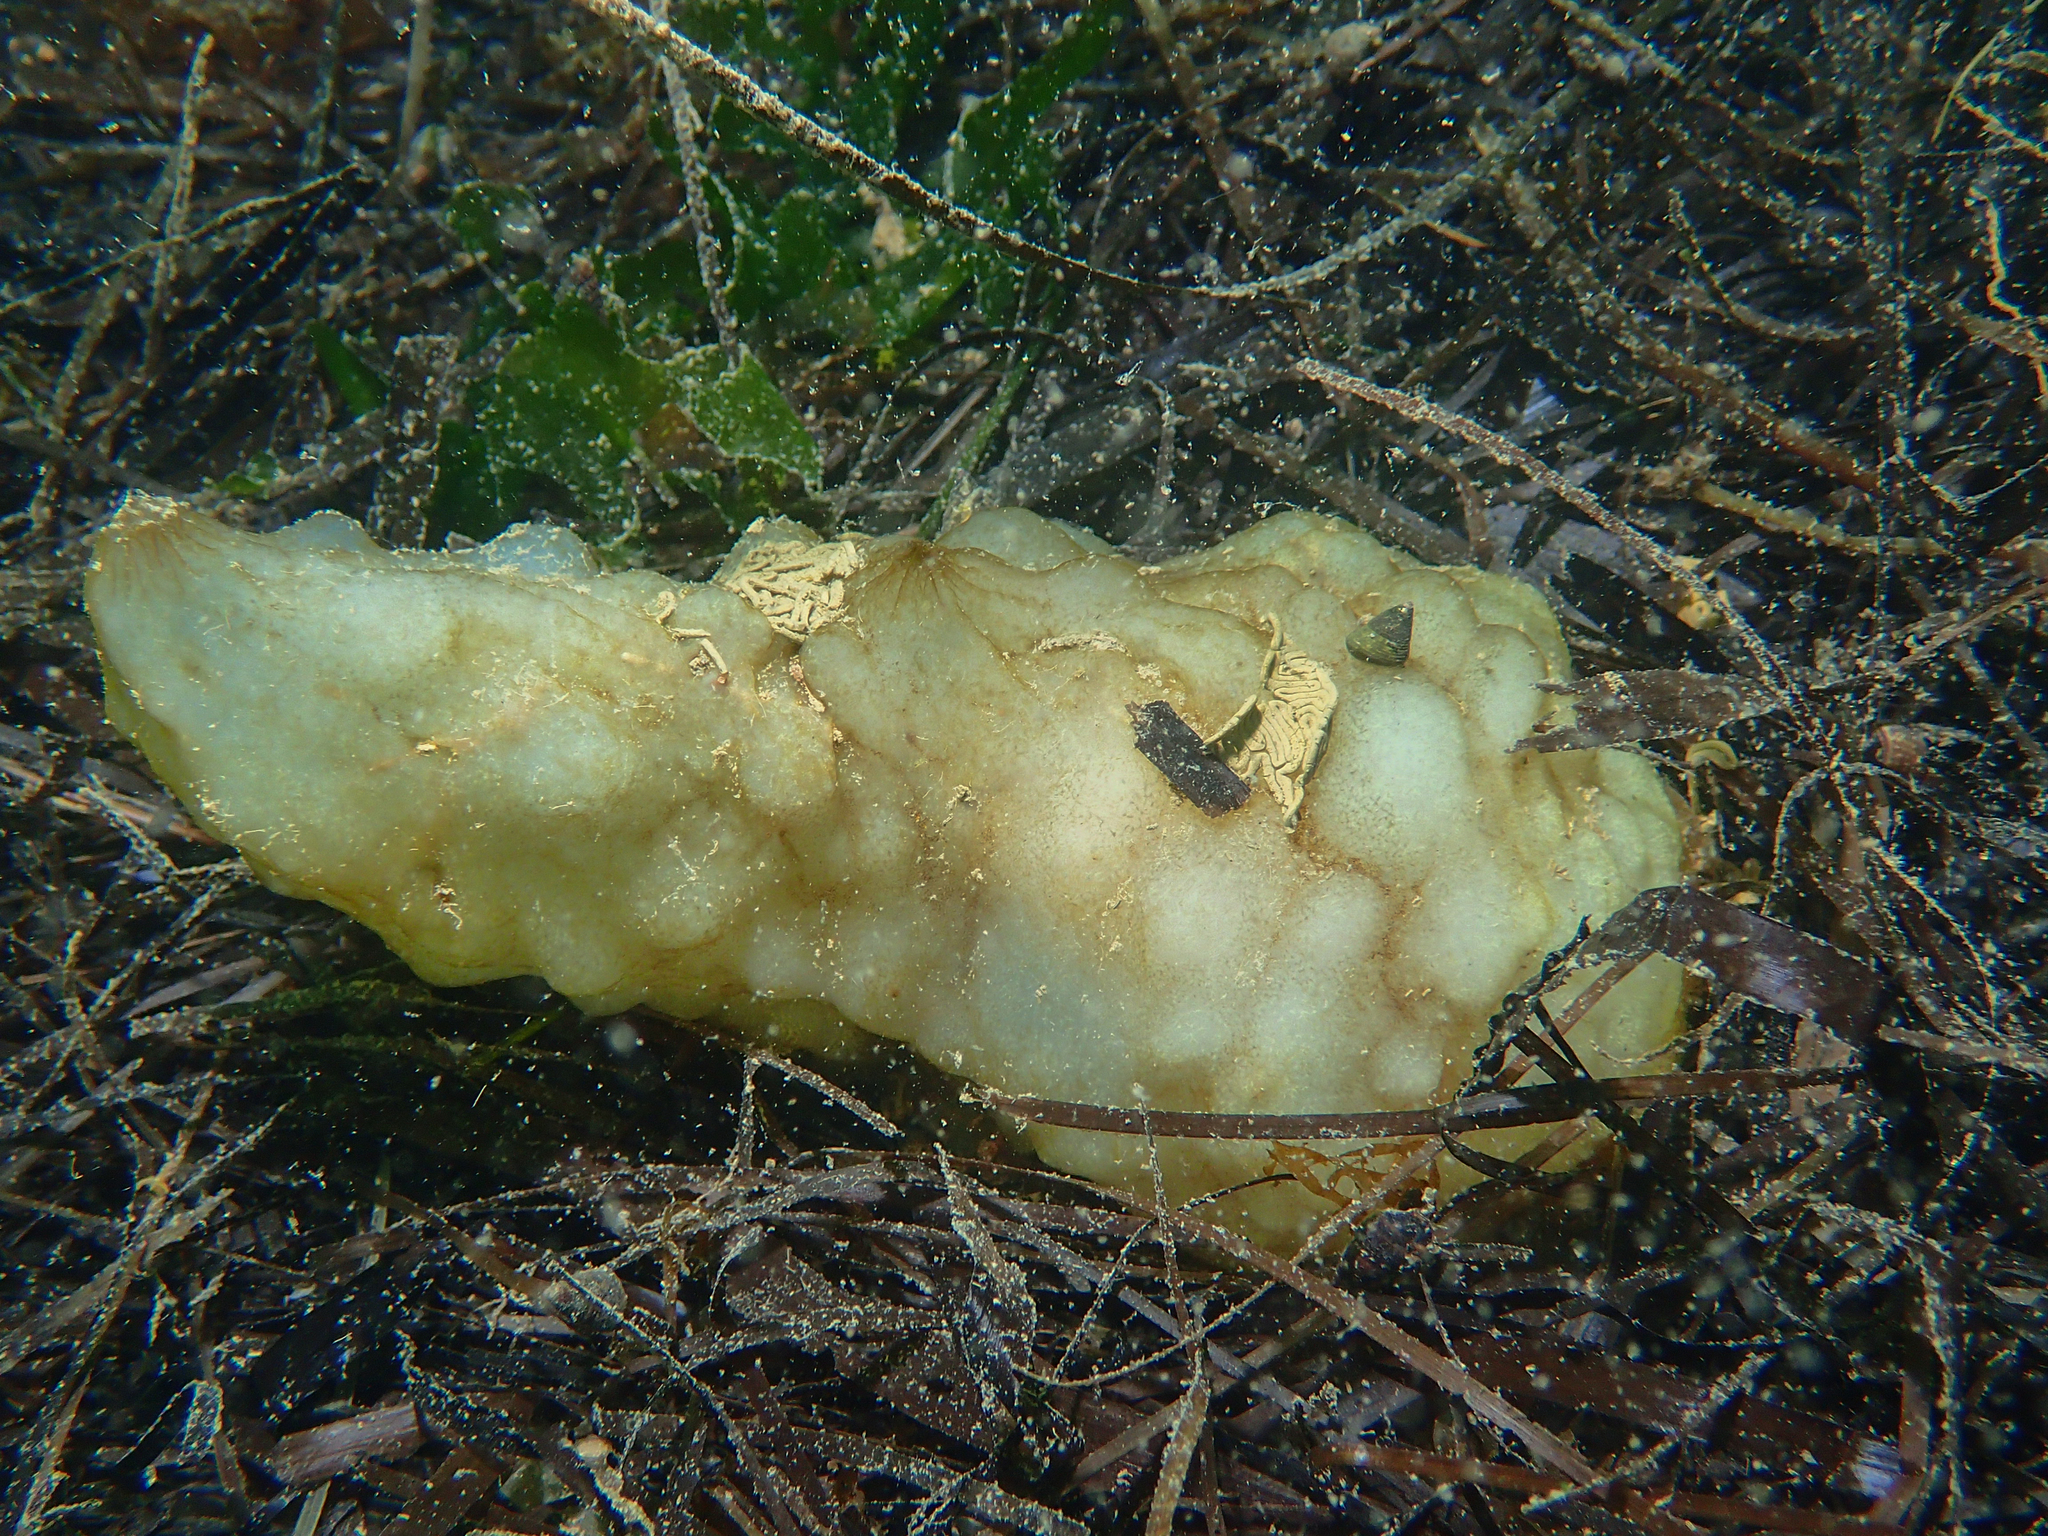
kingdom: Animalia
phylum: Chordata
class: Ascidiacea
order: Phlebobranchia
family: Ascidiidae
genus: Phallusia
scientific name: Phallusia mammillata
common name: Neptune's heart sea squirt
